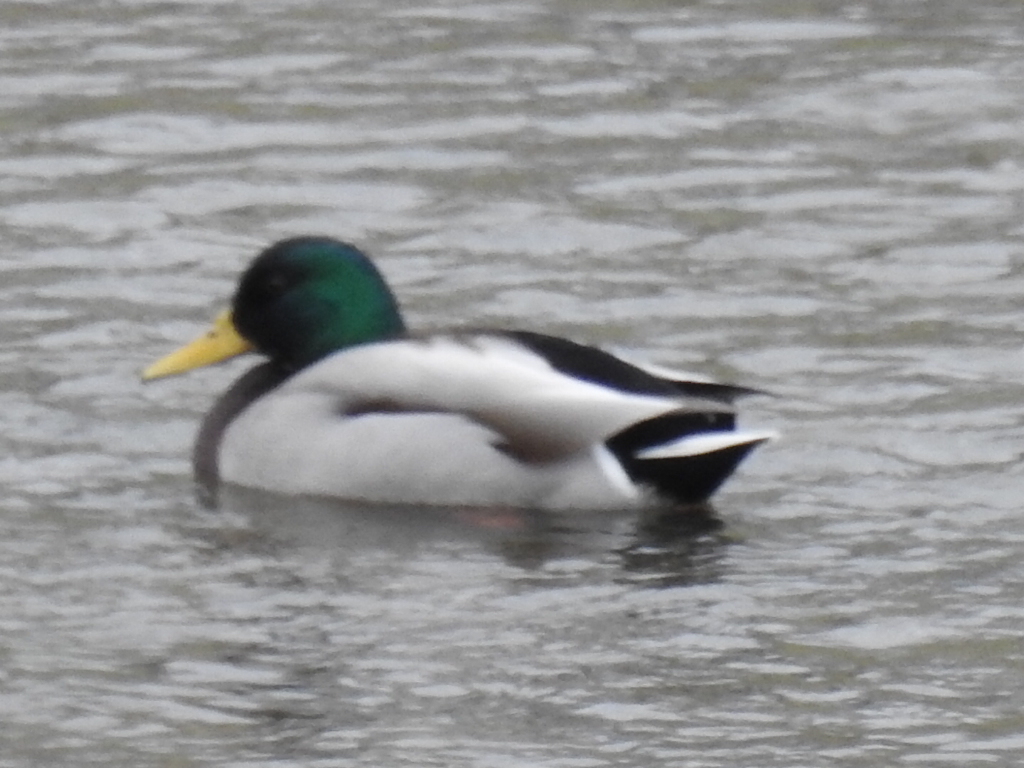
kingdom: Animalia
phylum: Chordata
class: Aves
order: Anseriformes
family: Anatidae
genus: Anas
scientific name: Anas platyrhynchos
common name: Mallard
